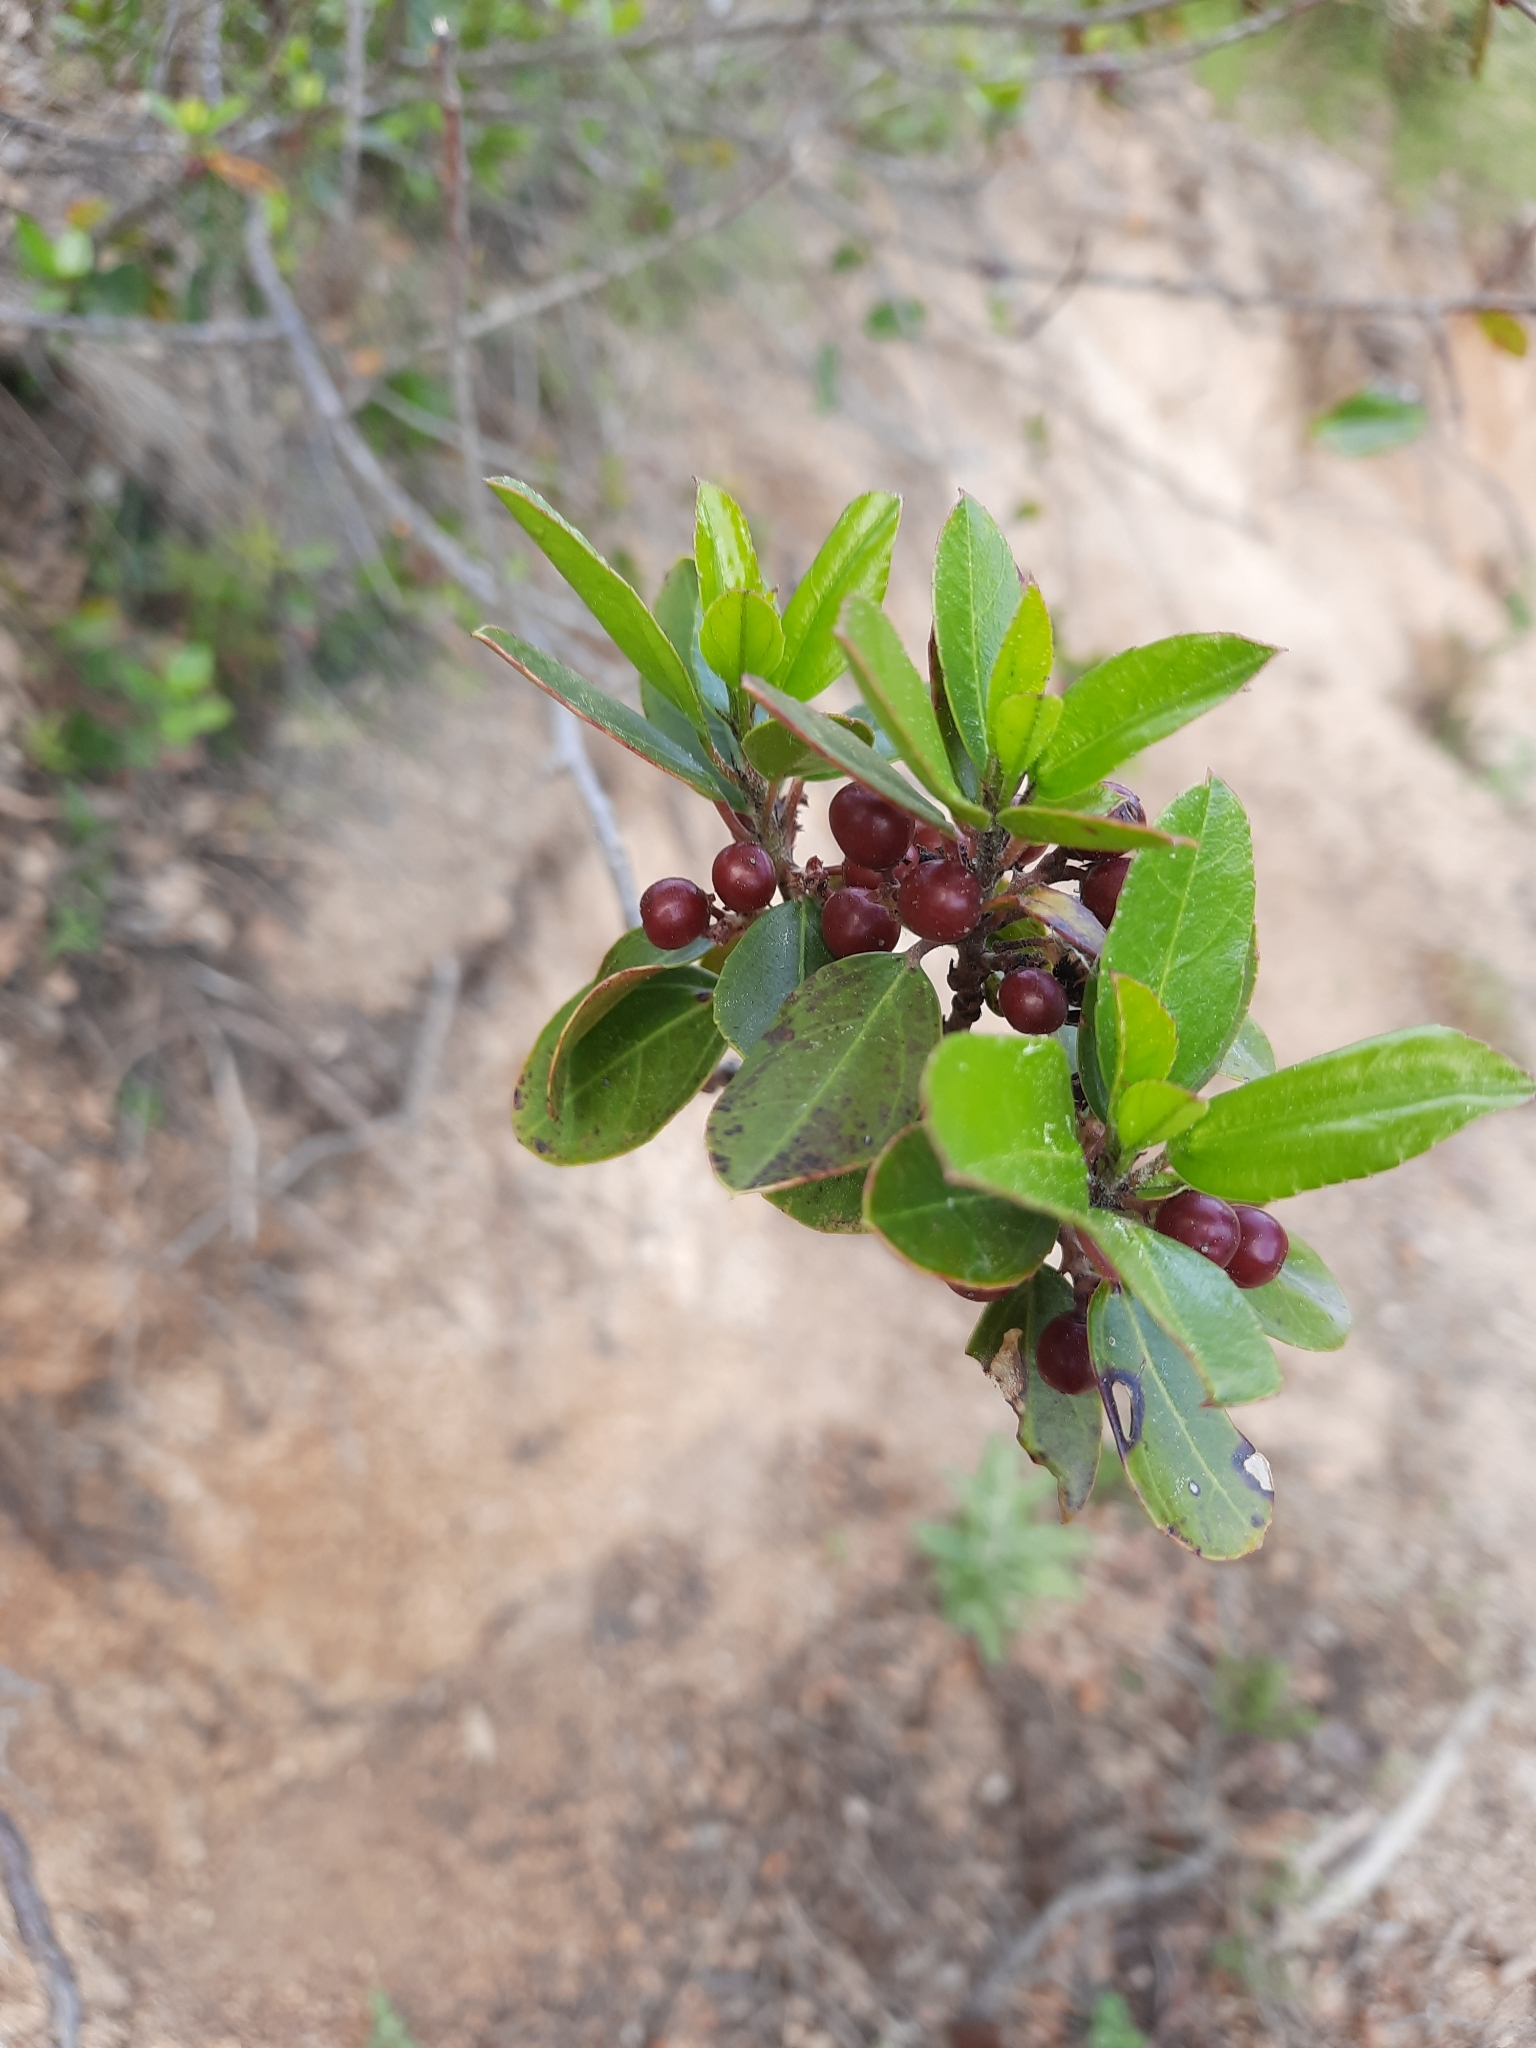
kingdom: Plantae
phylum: Tracheophyta
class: Magnoliopsida
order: Rosales
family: Rhamnaceae
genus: Rhamnus
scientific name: Rhamnus alaternus
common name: Mediterranean buckthorn
